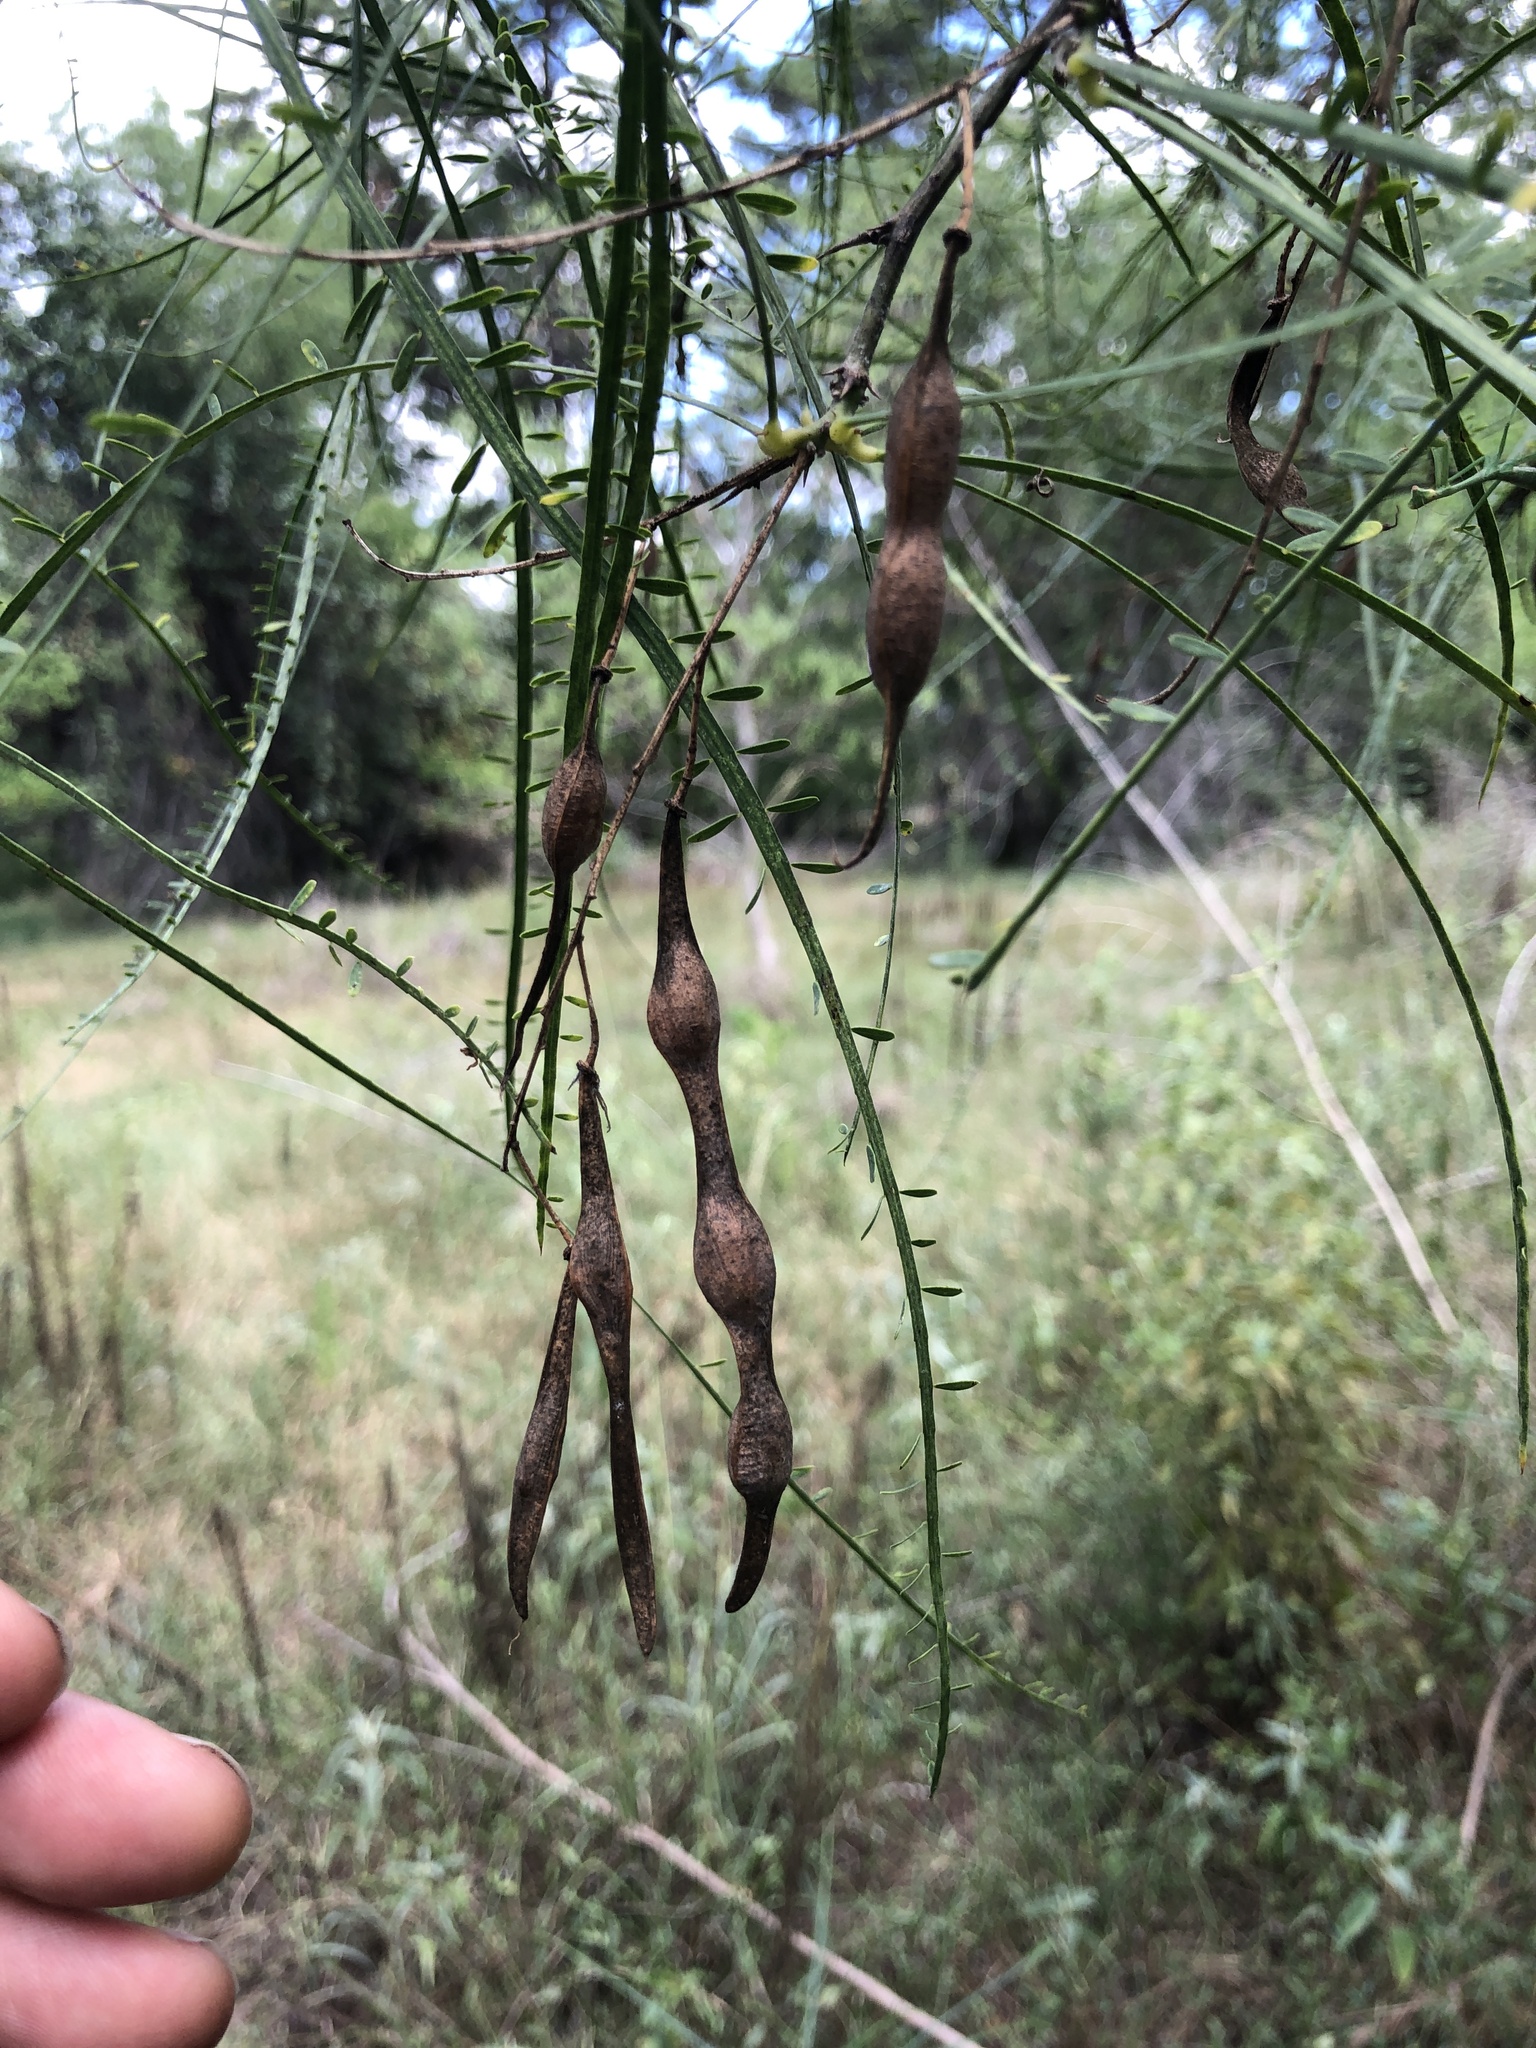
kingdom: Plantae
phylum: Tracheophyta
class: Magnoliopsida
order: Fabales
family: Fabaceae
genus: Parkinsonia
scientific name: Parkinsonia aculeata
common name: Jerusalem thorn
